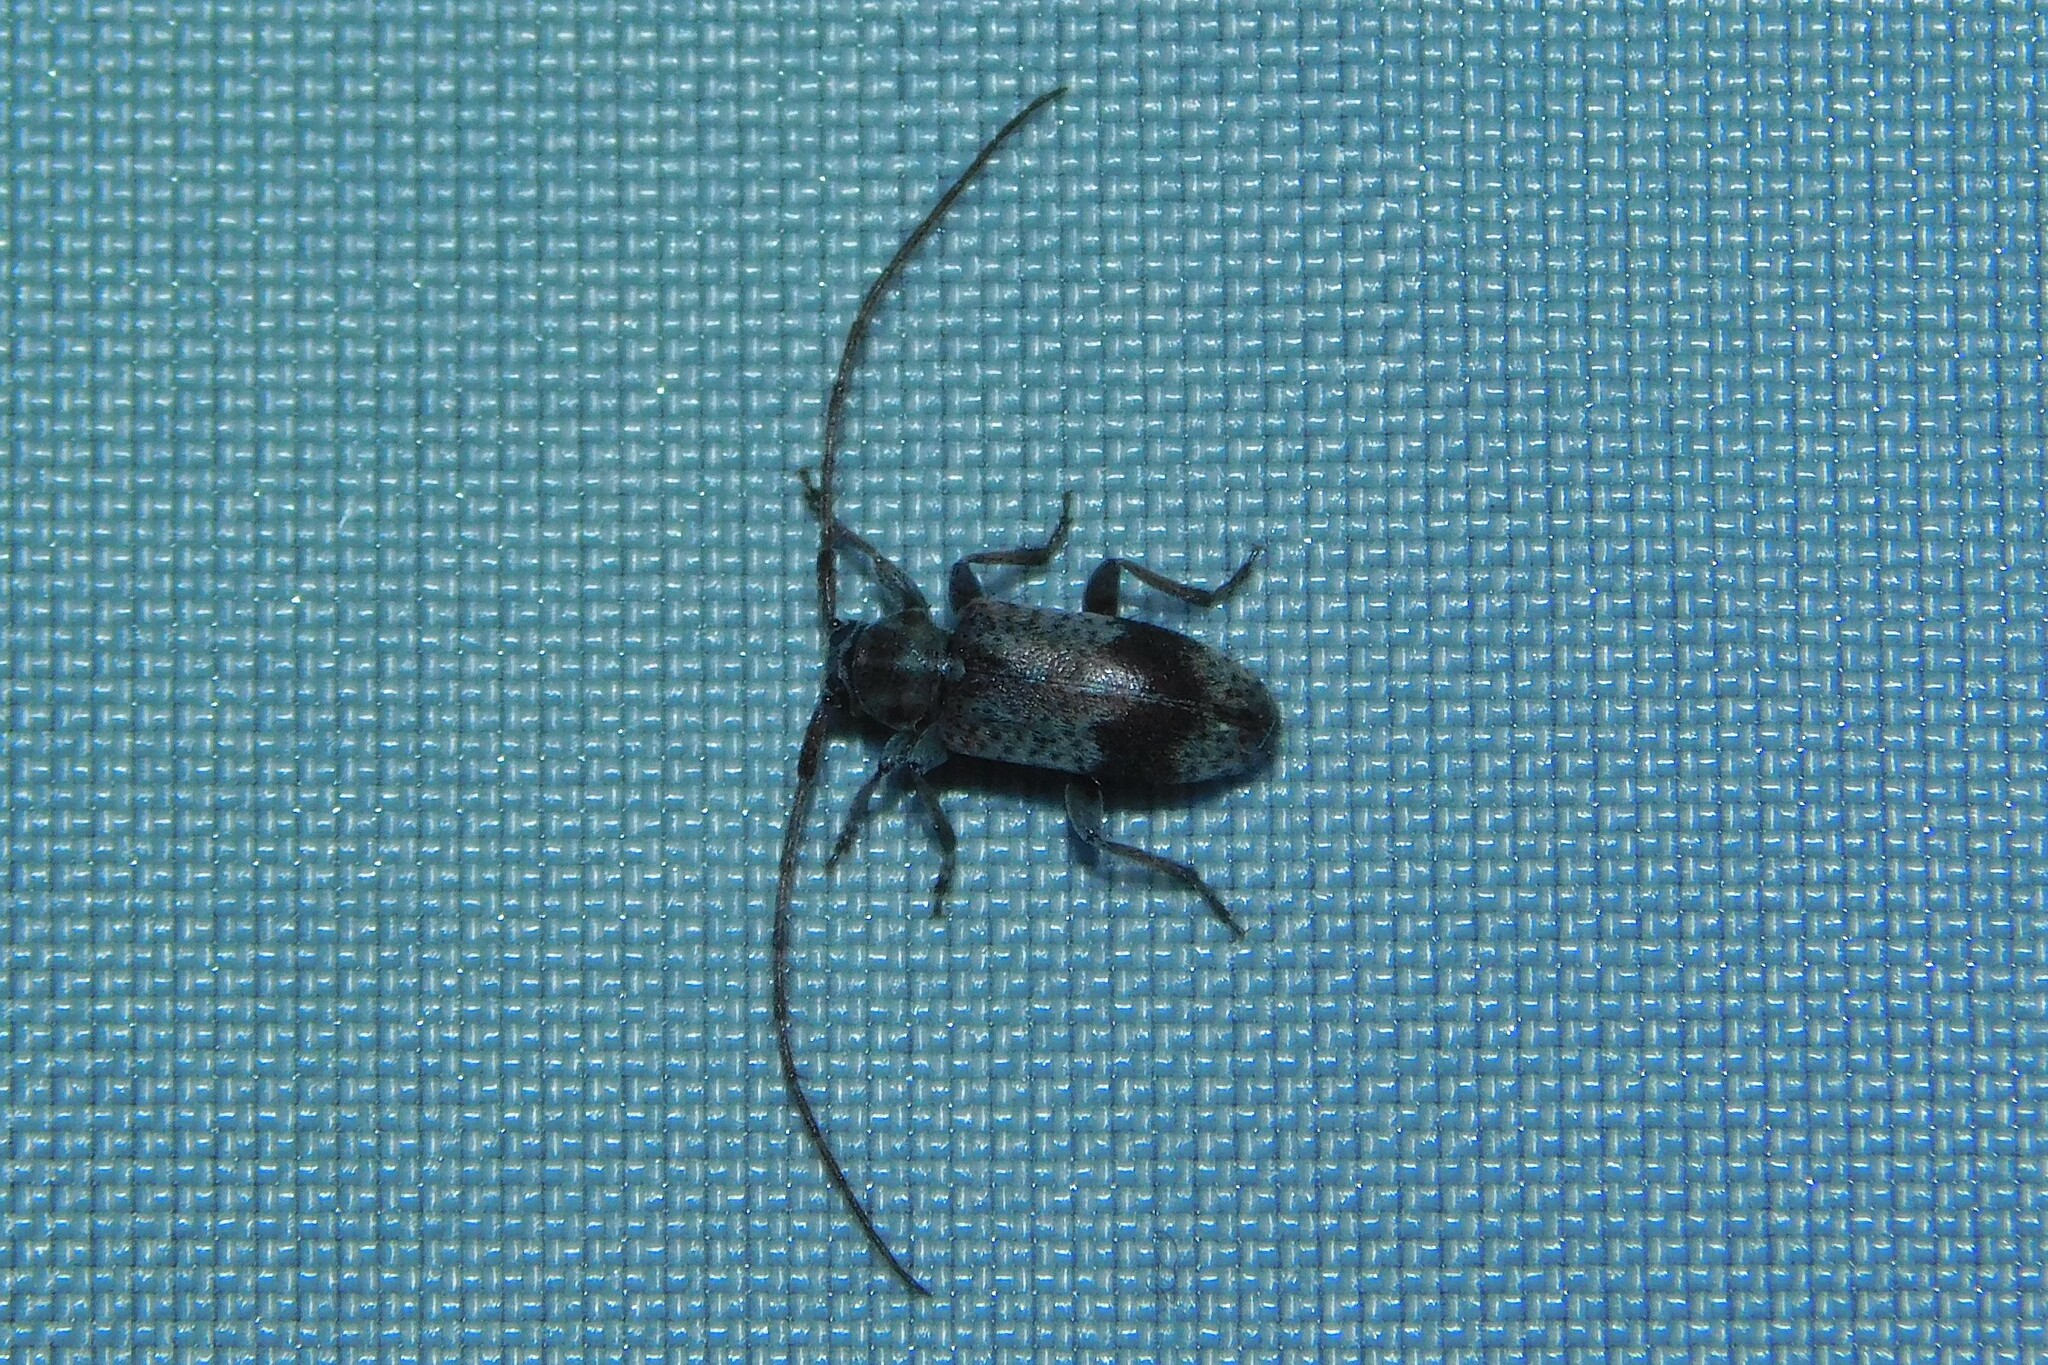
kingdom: Animalia
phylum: Arthropoda
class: Insecta
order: Coleoptera
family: Cerambycidae
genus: Exocentrus
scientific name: Exocentrus punctipennis
